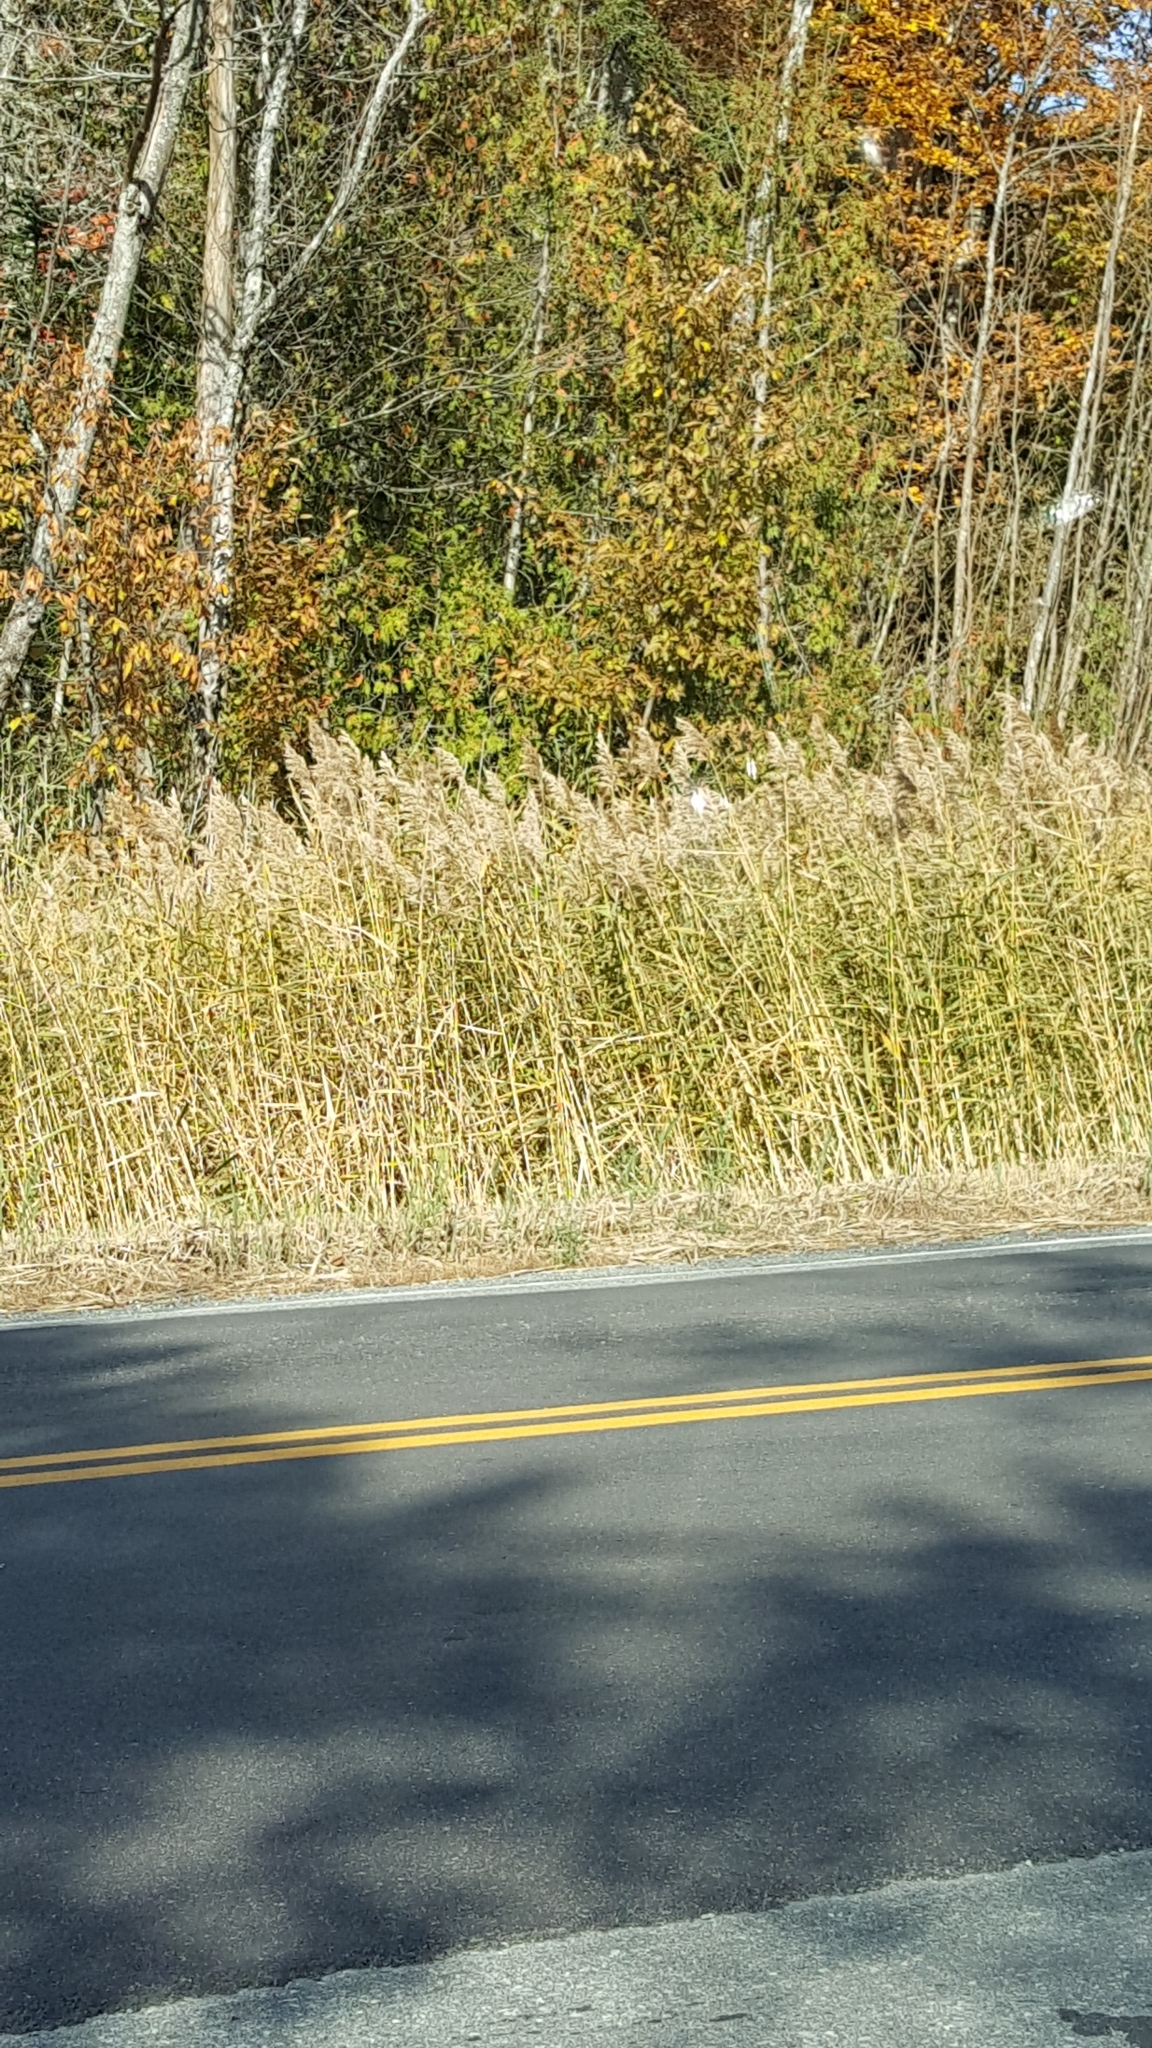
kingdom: Plantae
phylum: Tracheophyta
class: Liliopsida
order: Poales
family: Poaceae
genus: Phragmites
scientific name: Phragmites australis
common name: Common reed
